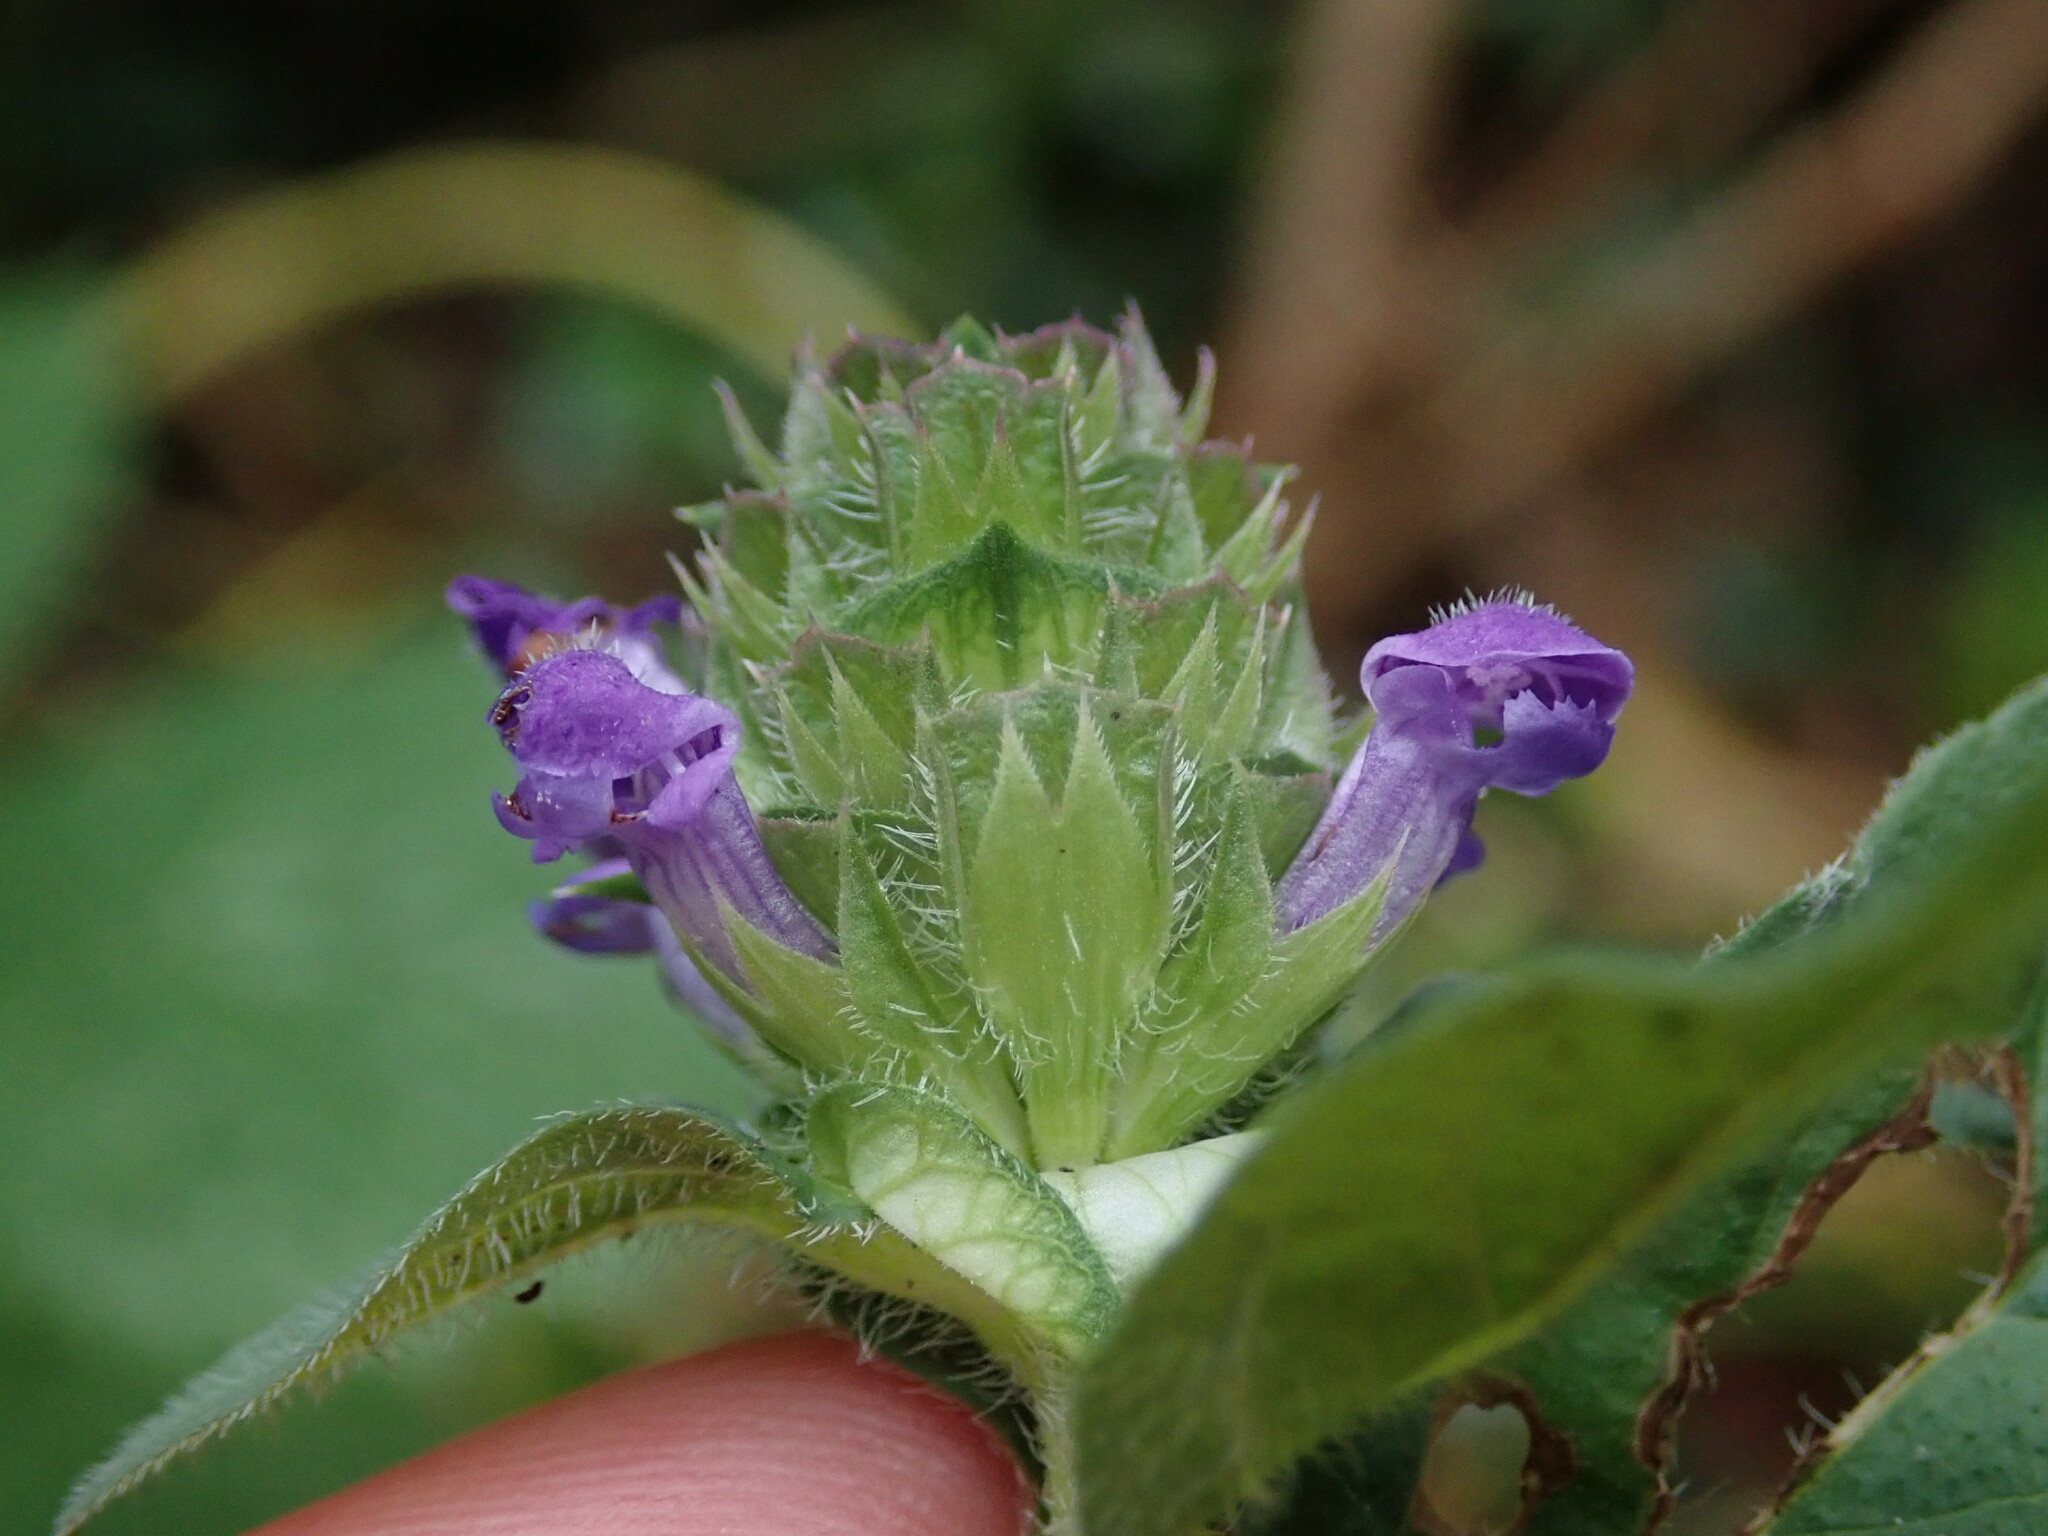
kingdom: Plantae
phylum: Tracheophyta
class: Magnoliopsida
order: Lamiales
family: Lamiaceae
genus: Prunella
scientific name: Prunella vulgaris
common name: Heal-all
